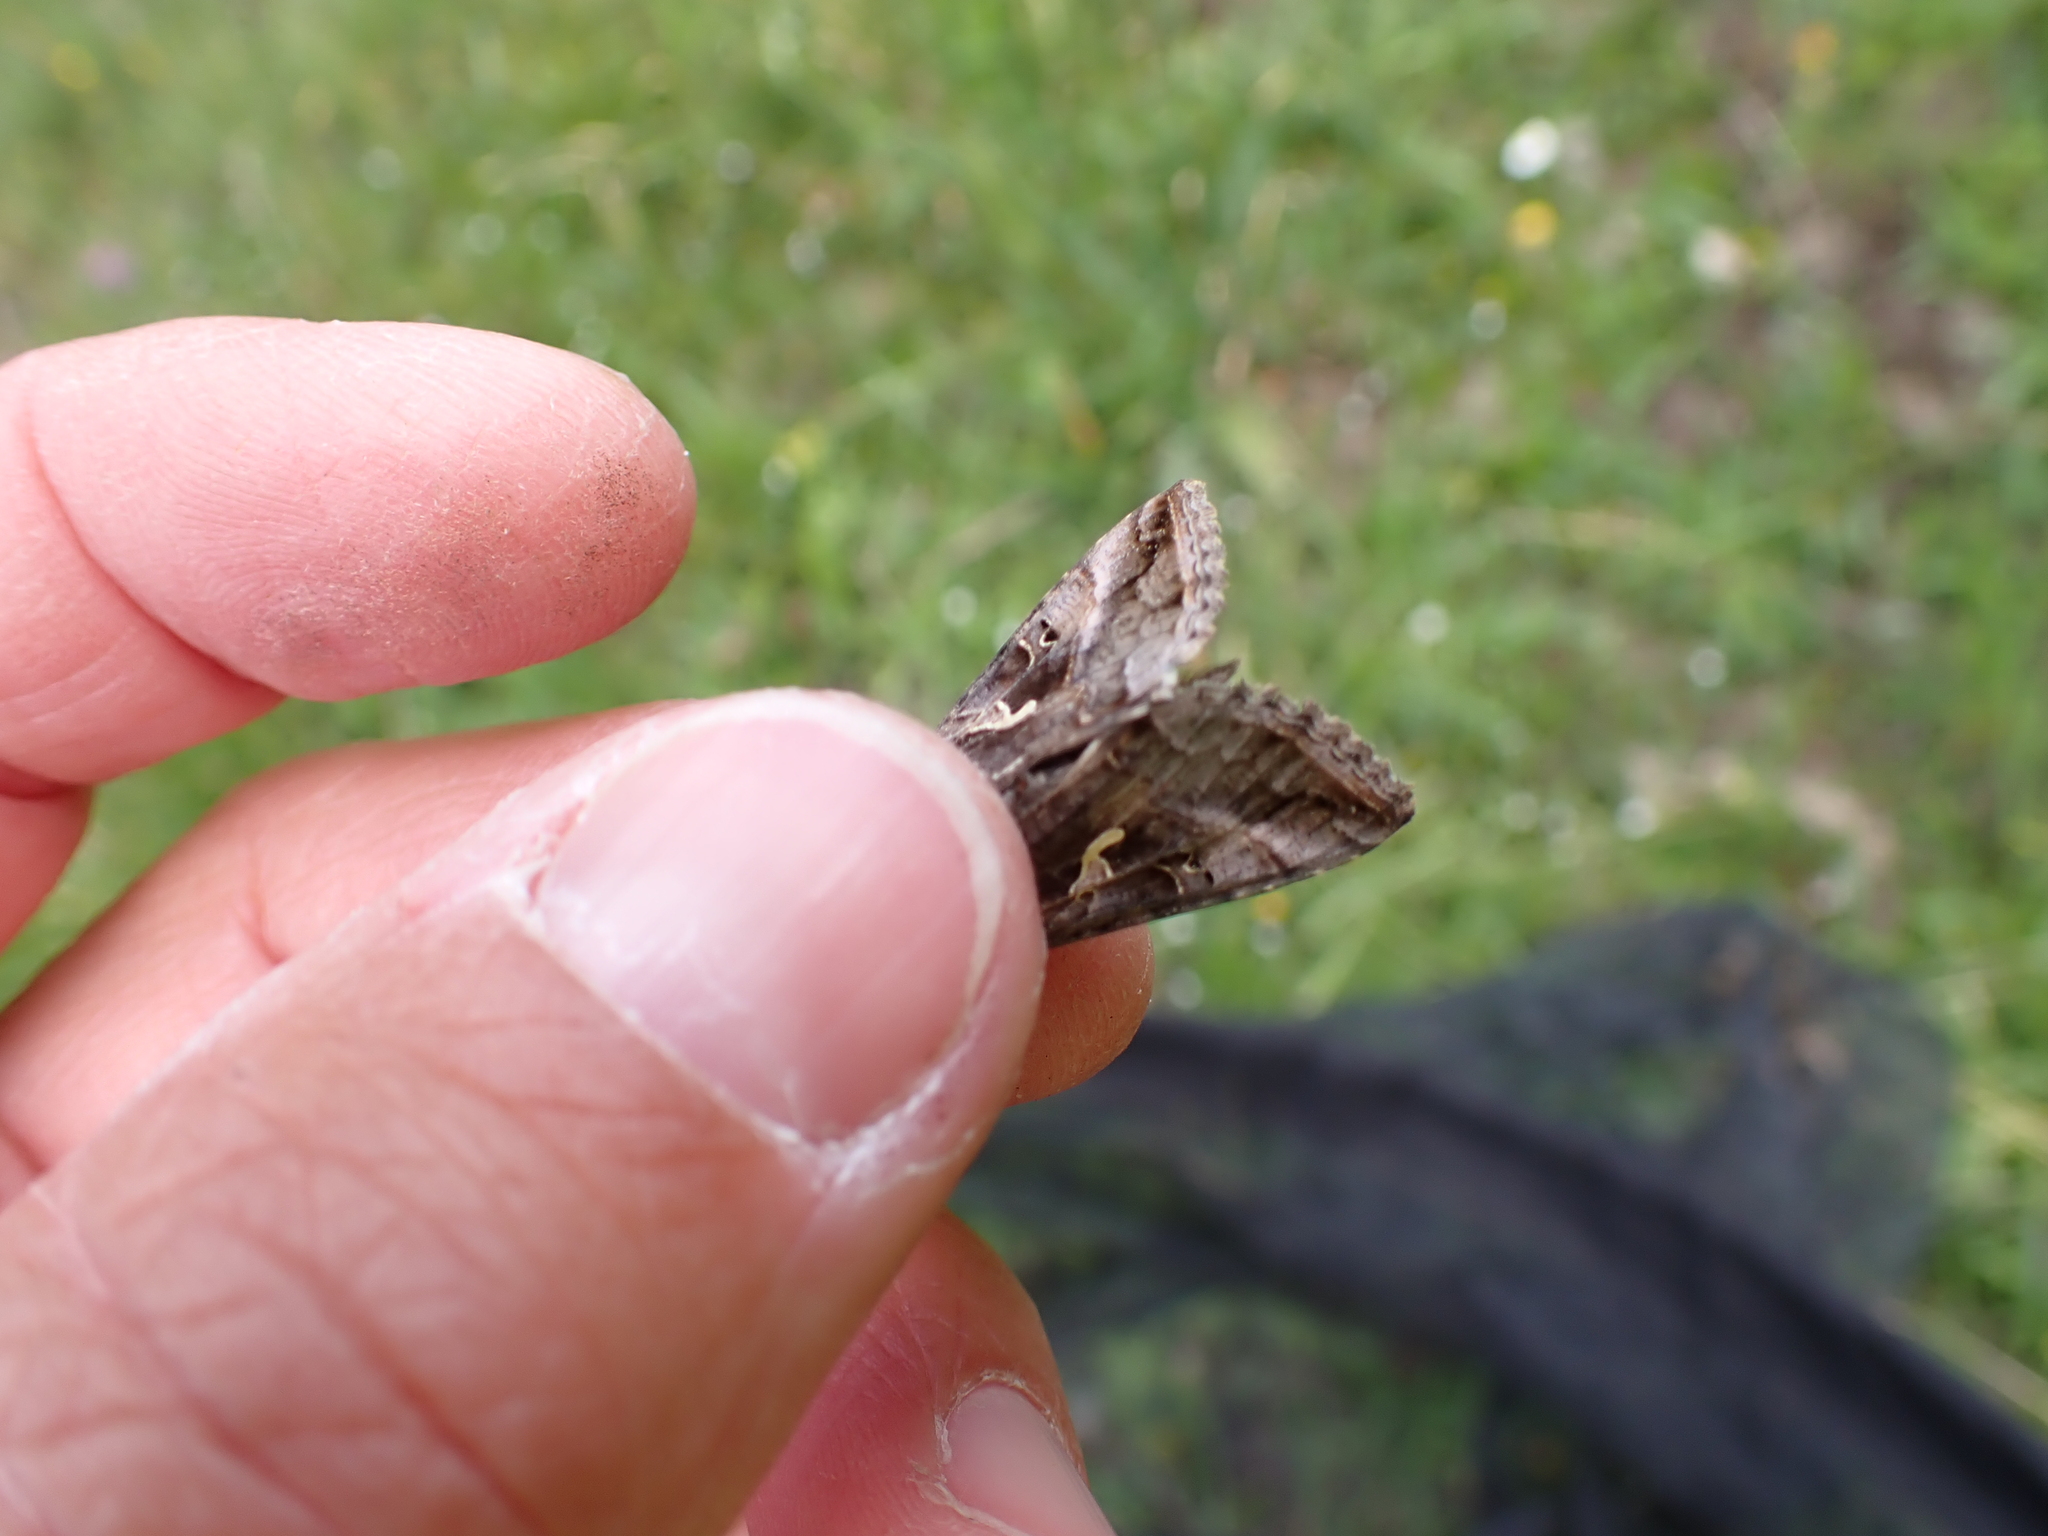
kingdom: Animalia
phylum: Arthropoda
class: Insecta
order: Lepidoptera
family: Noctuidae
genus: Autographa
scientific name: Autographa gamma
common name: Silver y
